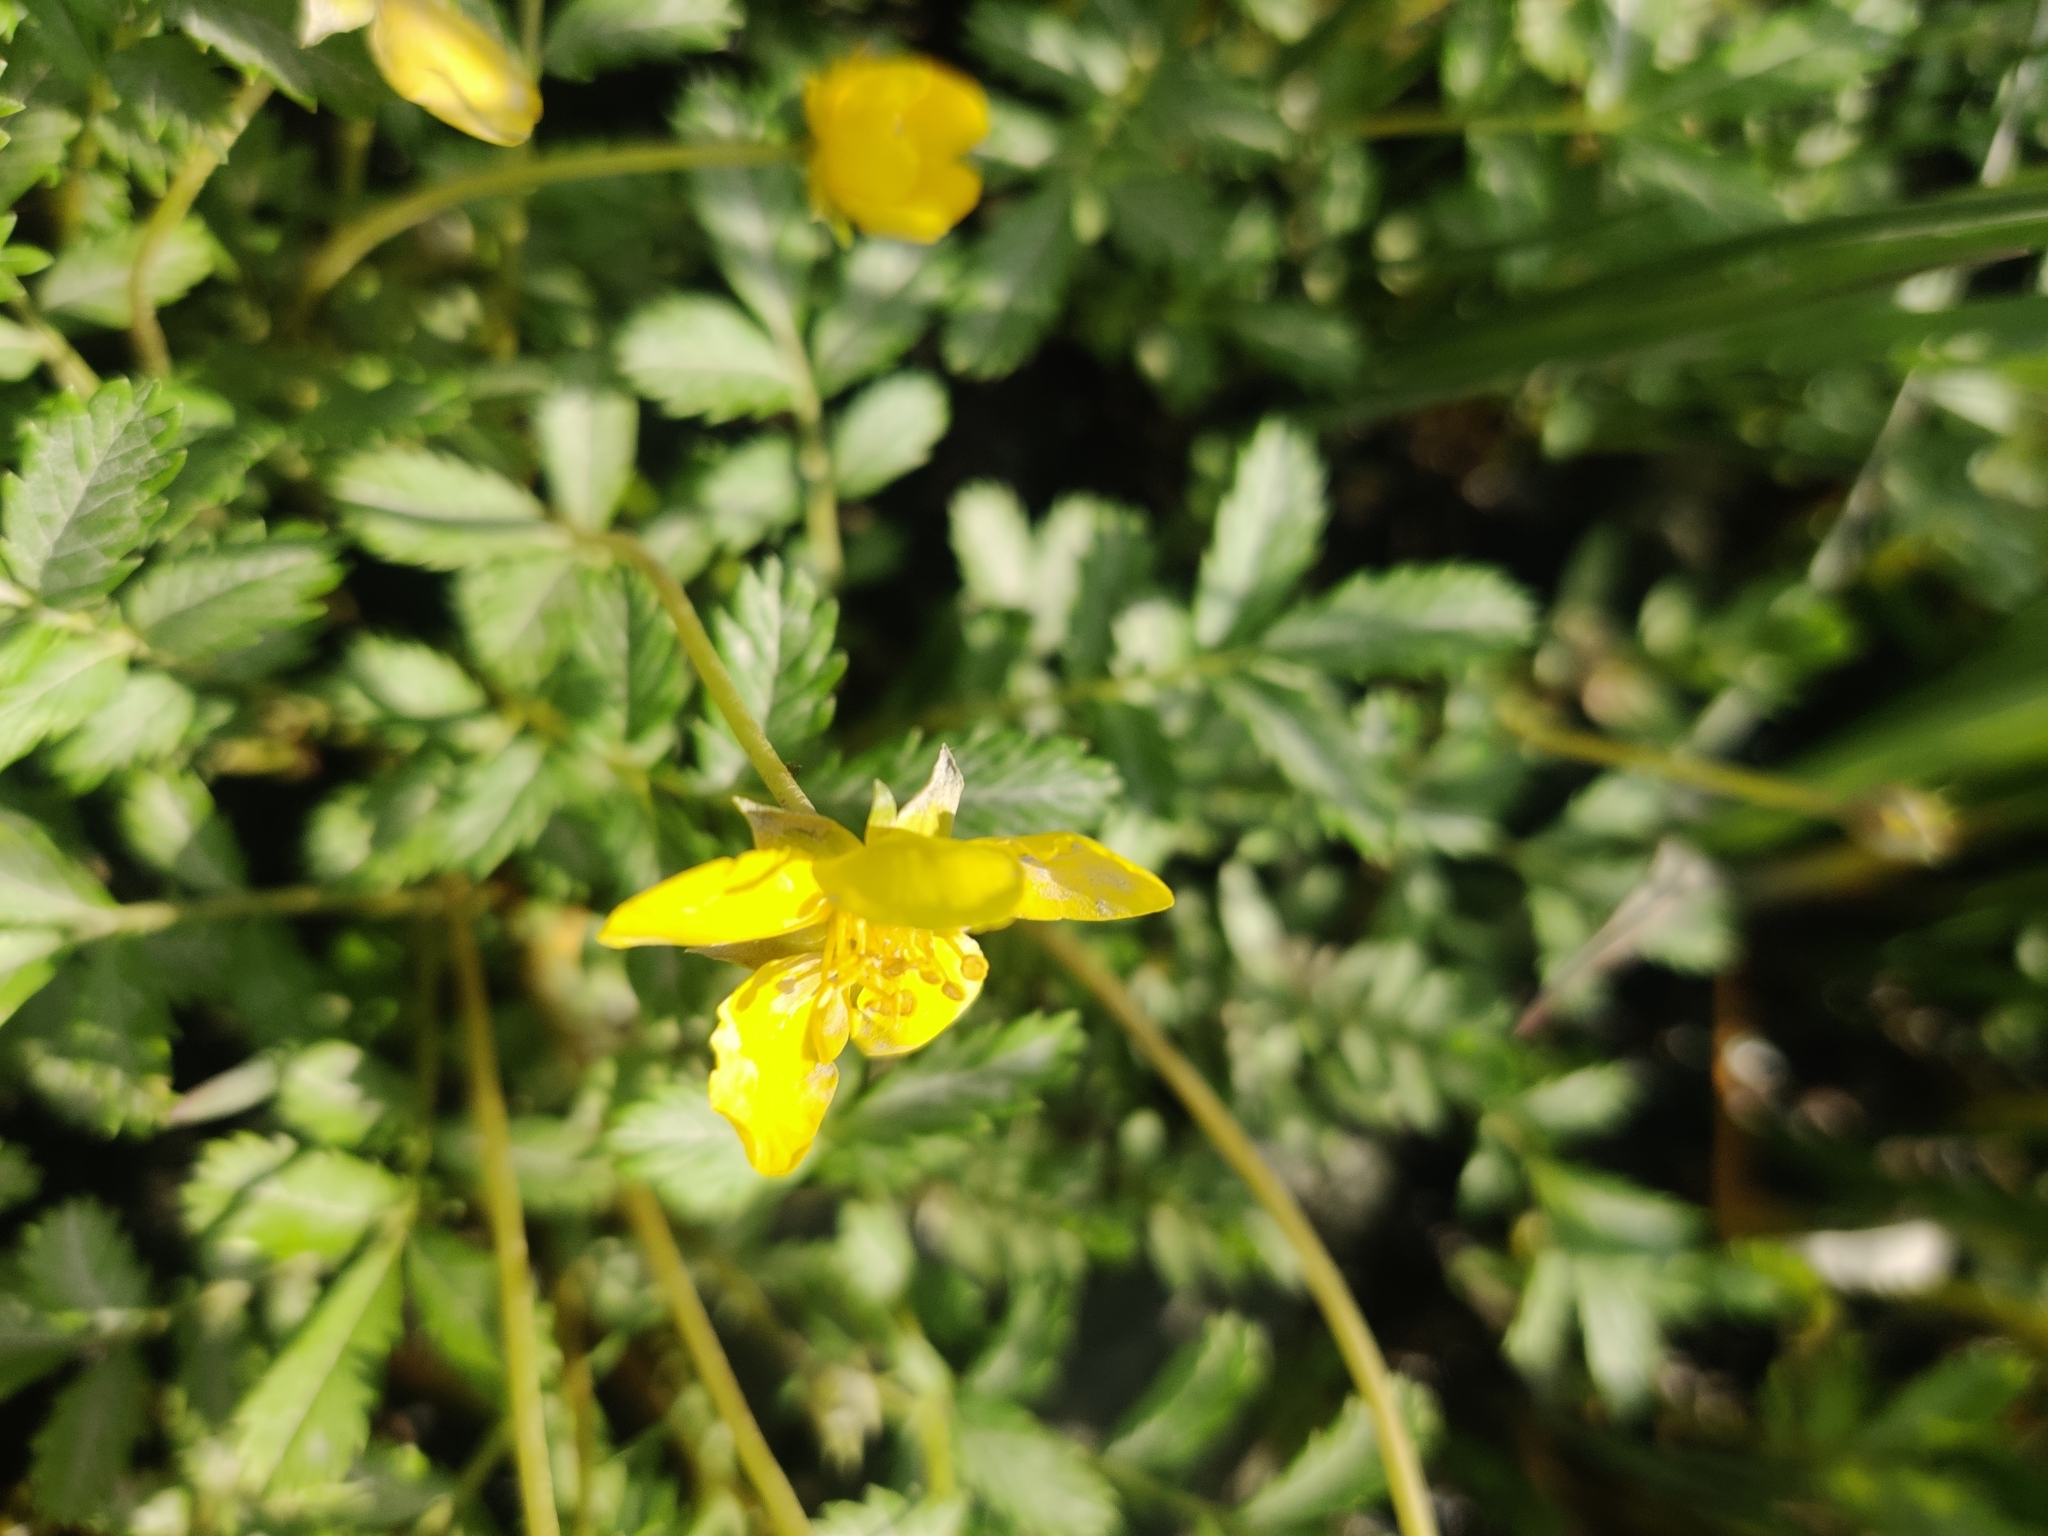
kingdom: Plantae
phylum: Tracheophyta
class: Magnoliopsida
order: Rosales
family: Rosaceae
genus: Argentina
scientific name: Argentina anserina
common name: Common silverweed
